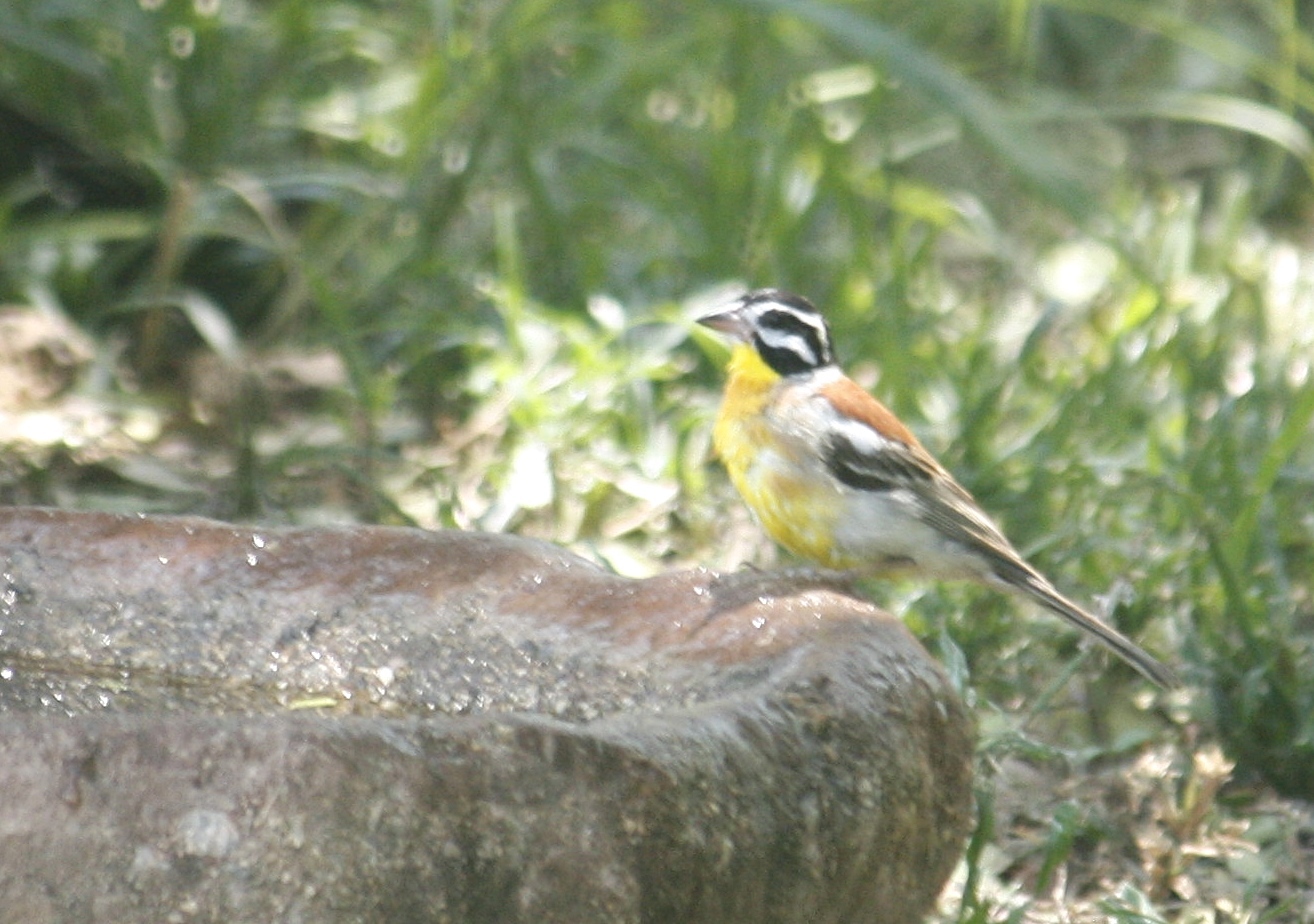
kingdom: Animalia
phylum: Chordata
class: Aves
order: Passeriformes
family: Emberizidae
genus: Emberiza
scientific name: Emberiza flaviventris
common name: Golden-breasted bunting
